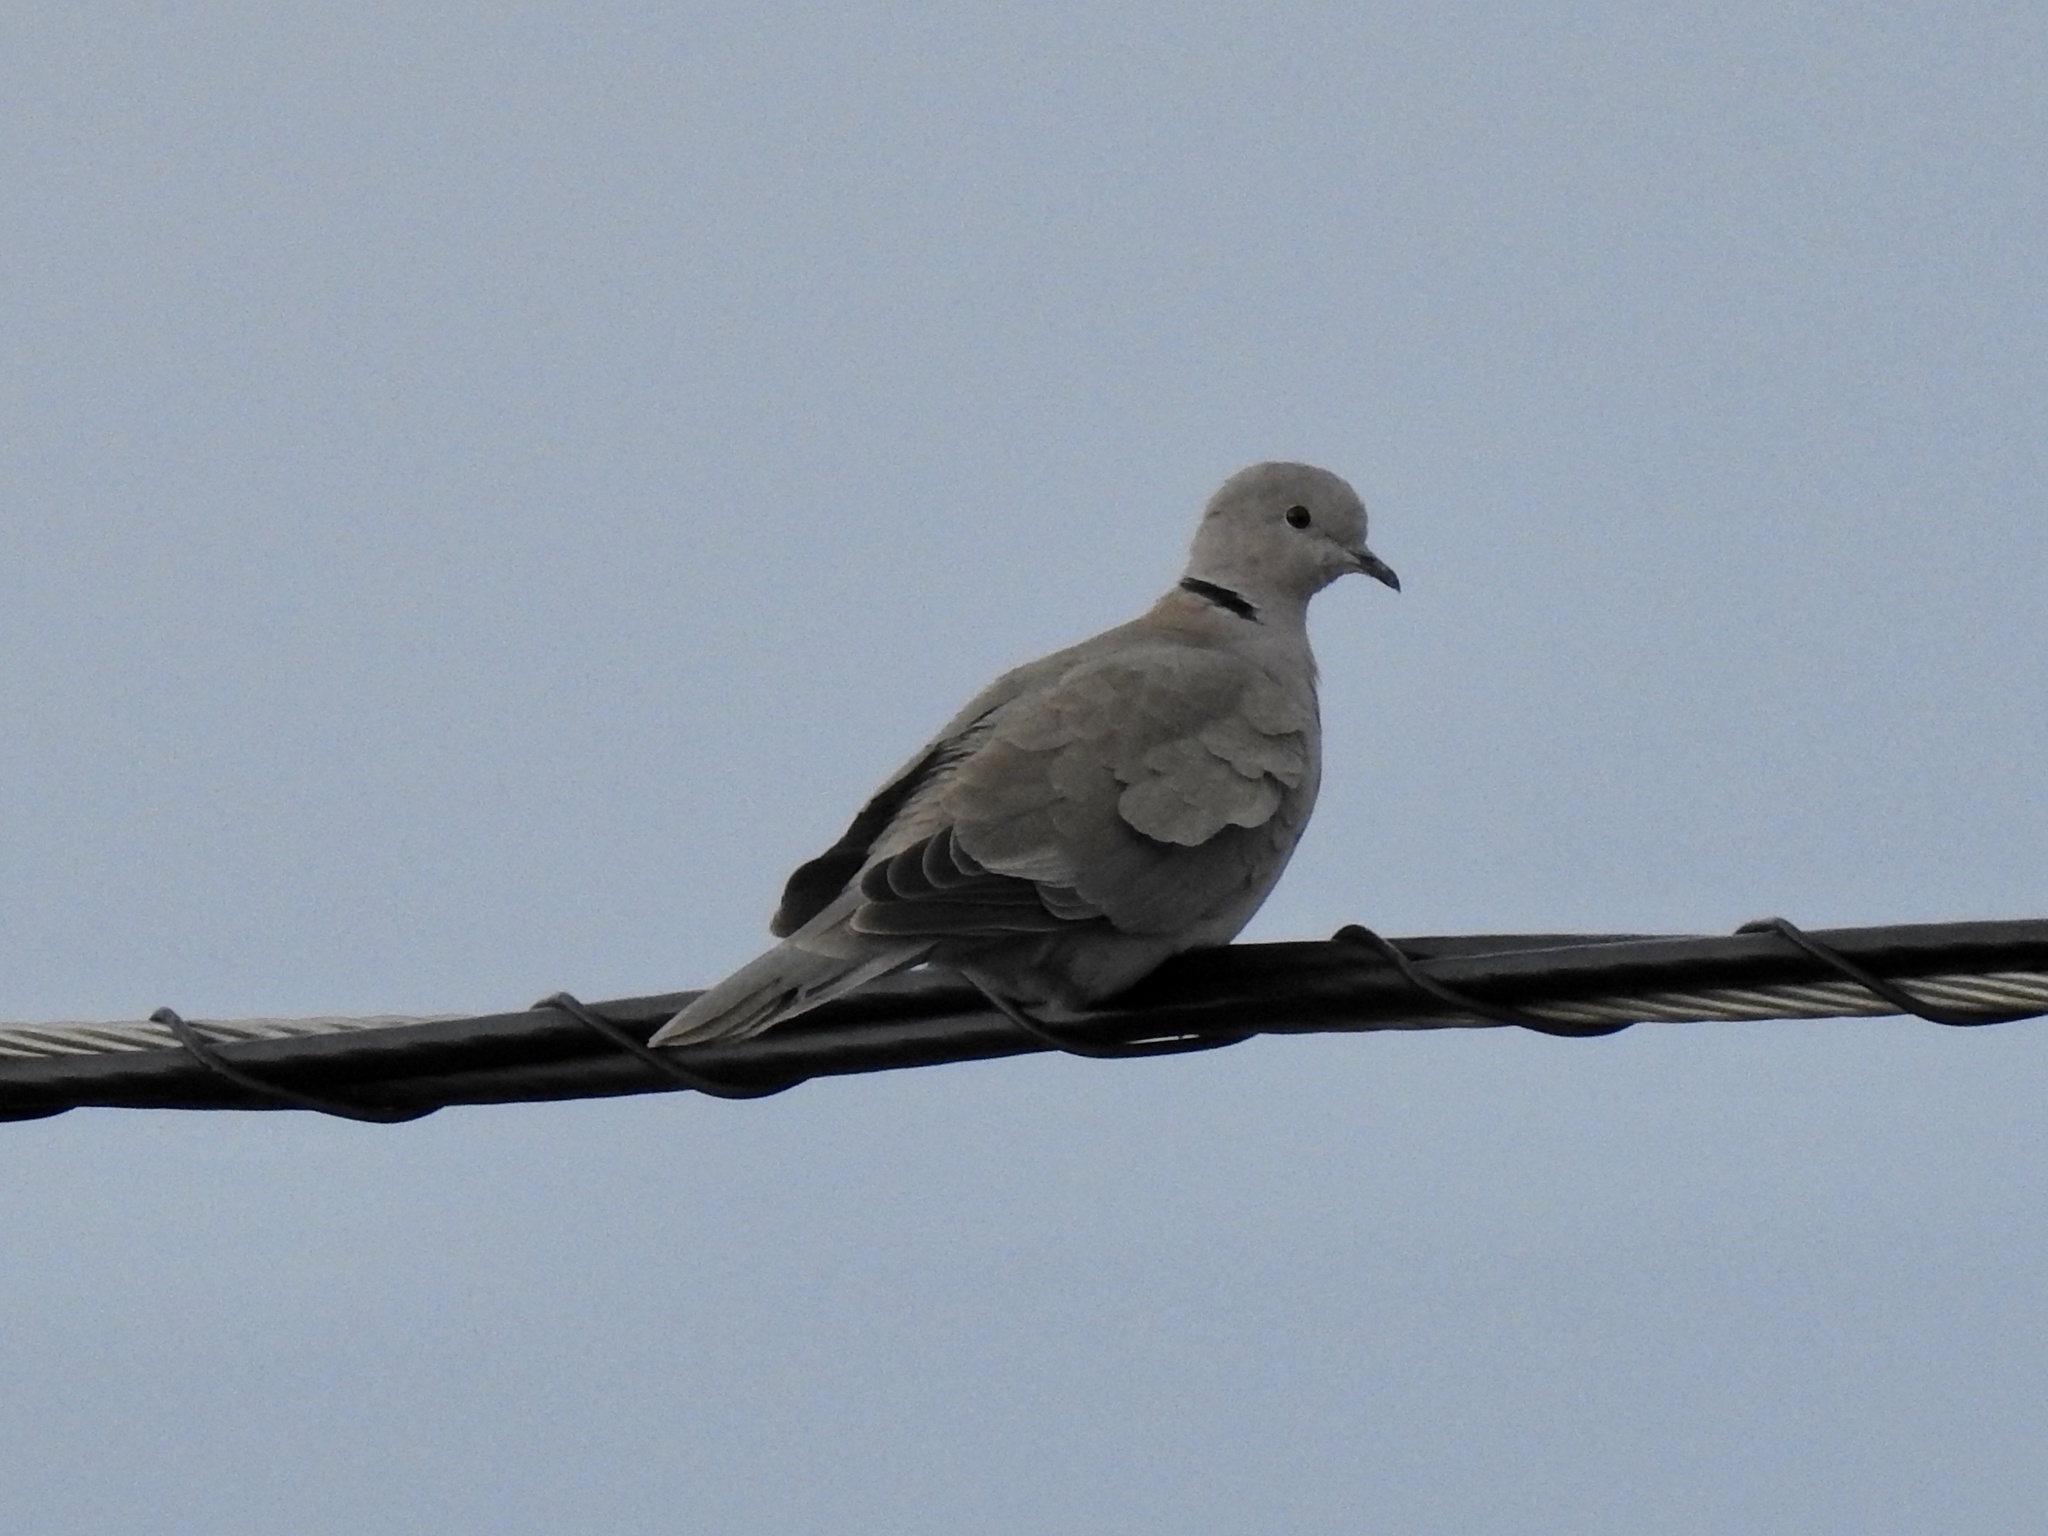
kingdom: Animalia
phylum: Chordata
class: Aves
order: Columbiformes
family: Columbidae
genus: Streptopelia
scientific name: Streptopelia decaocto
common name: Eurasian collared dove
